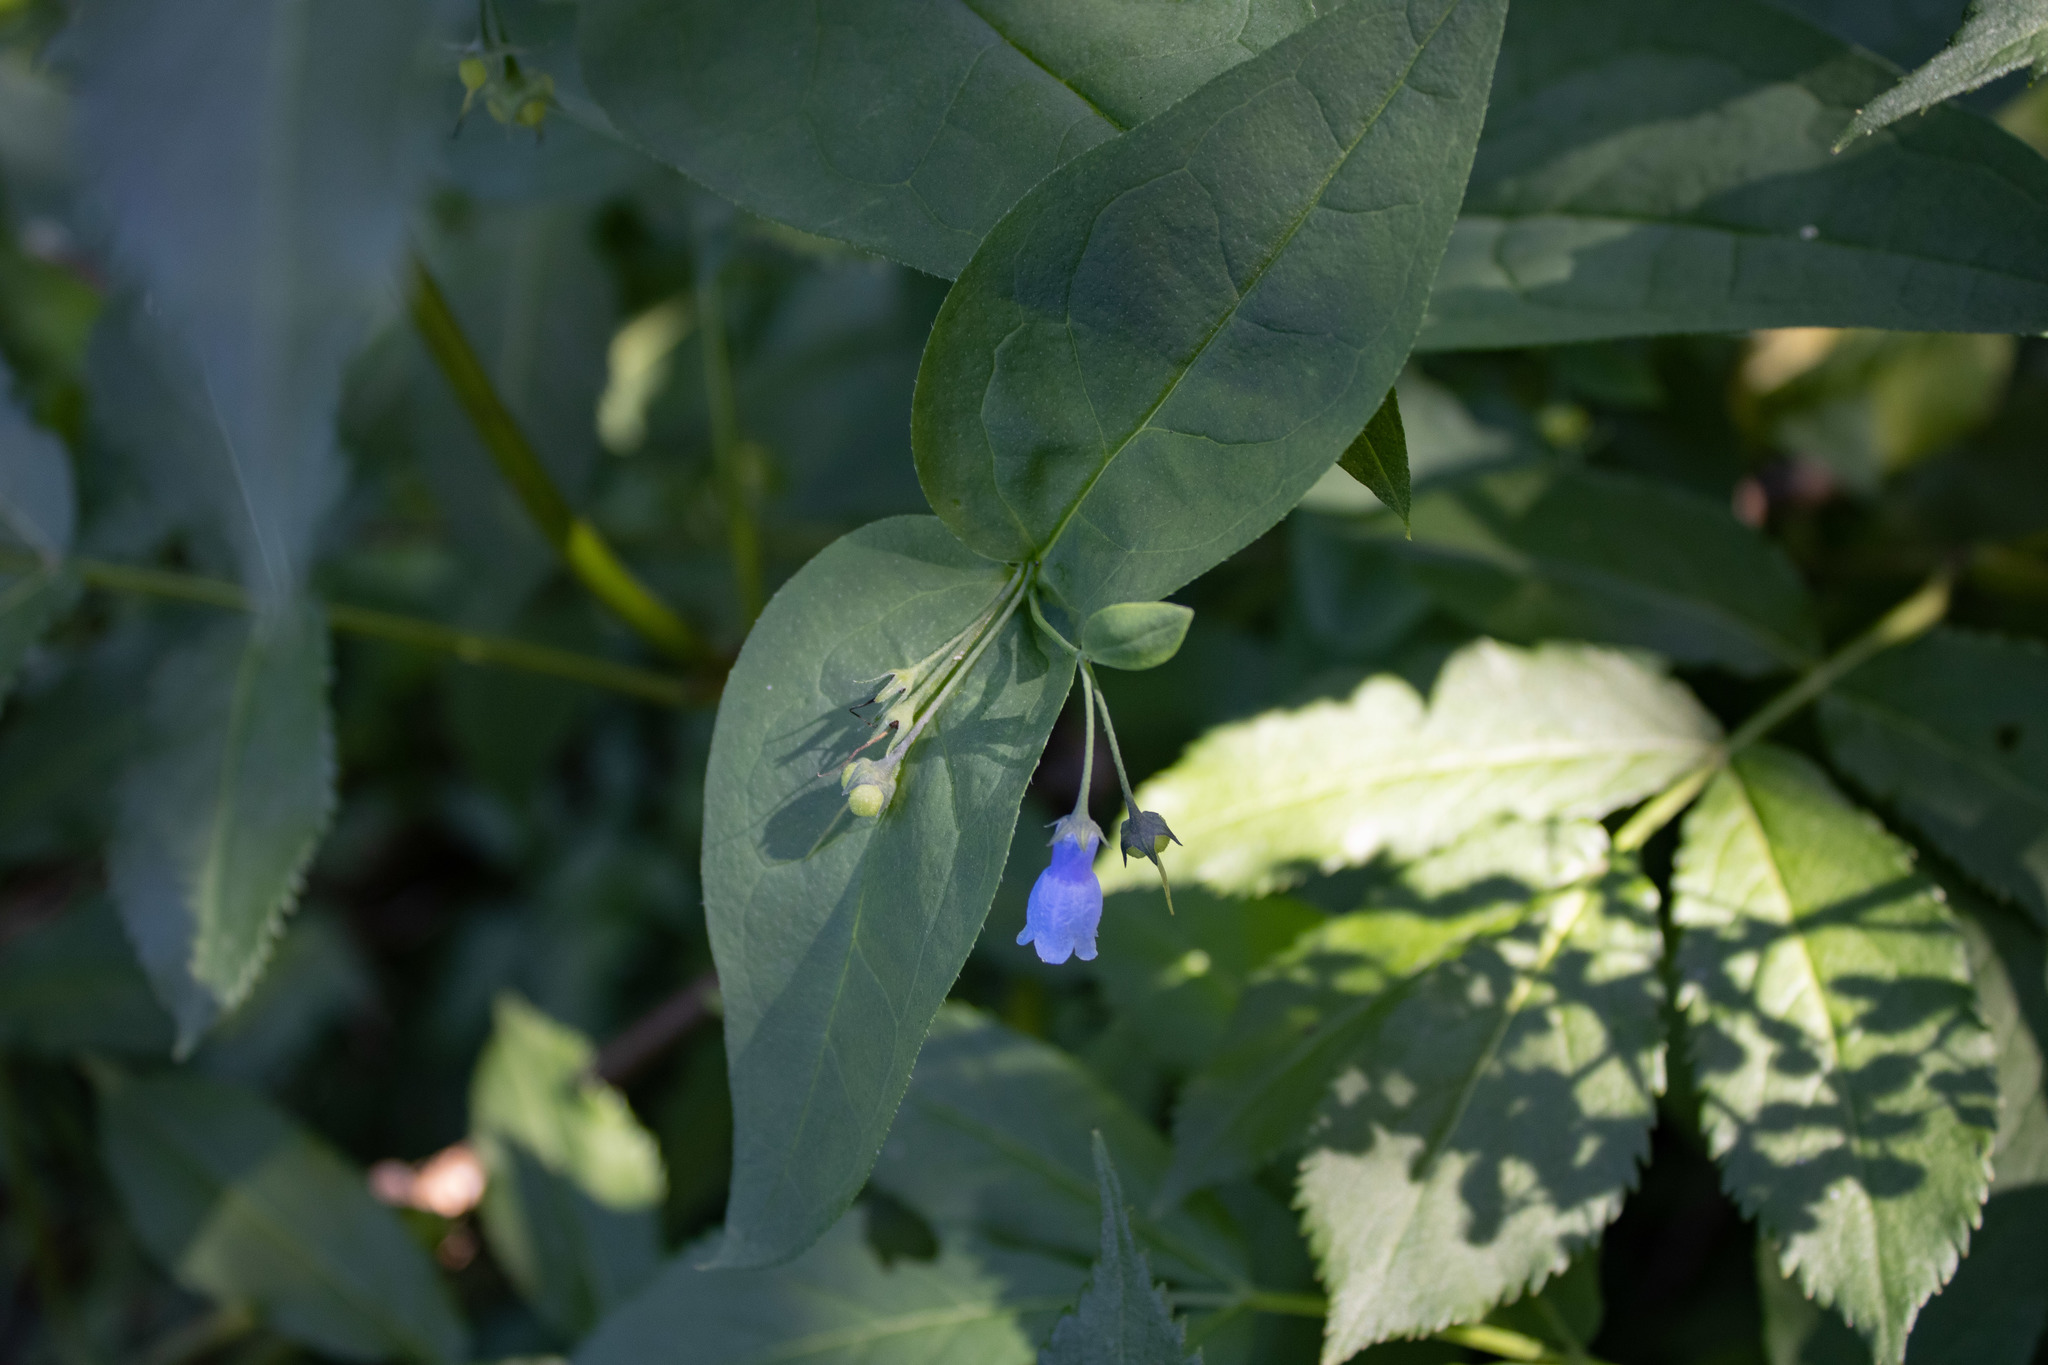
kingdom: Plantae
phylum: Tracheophyta
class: Magnoliopsida
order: Boraginales
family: Boraginaceae
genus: Mertensia
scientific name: Mertensia paniculata
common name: Panicled bluebells
